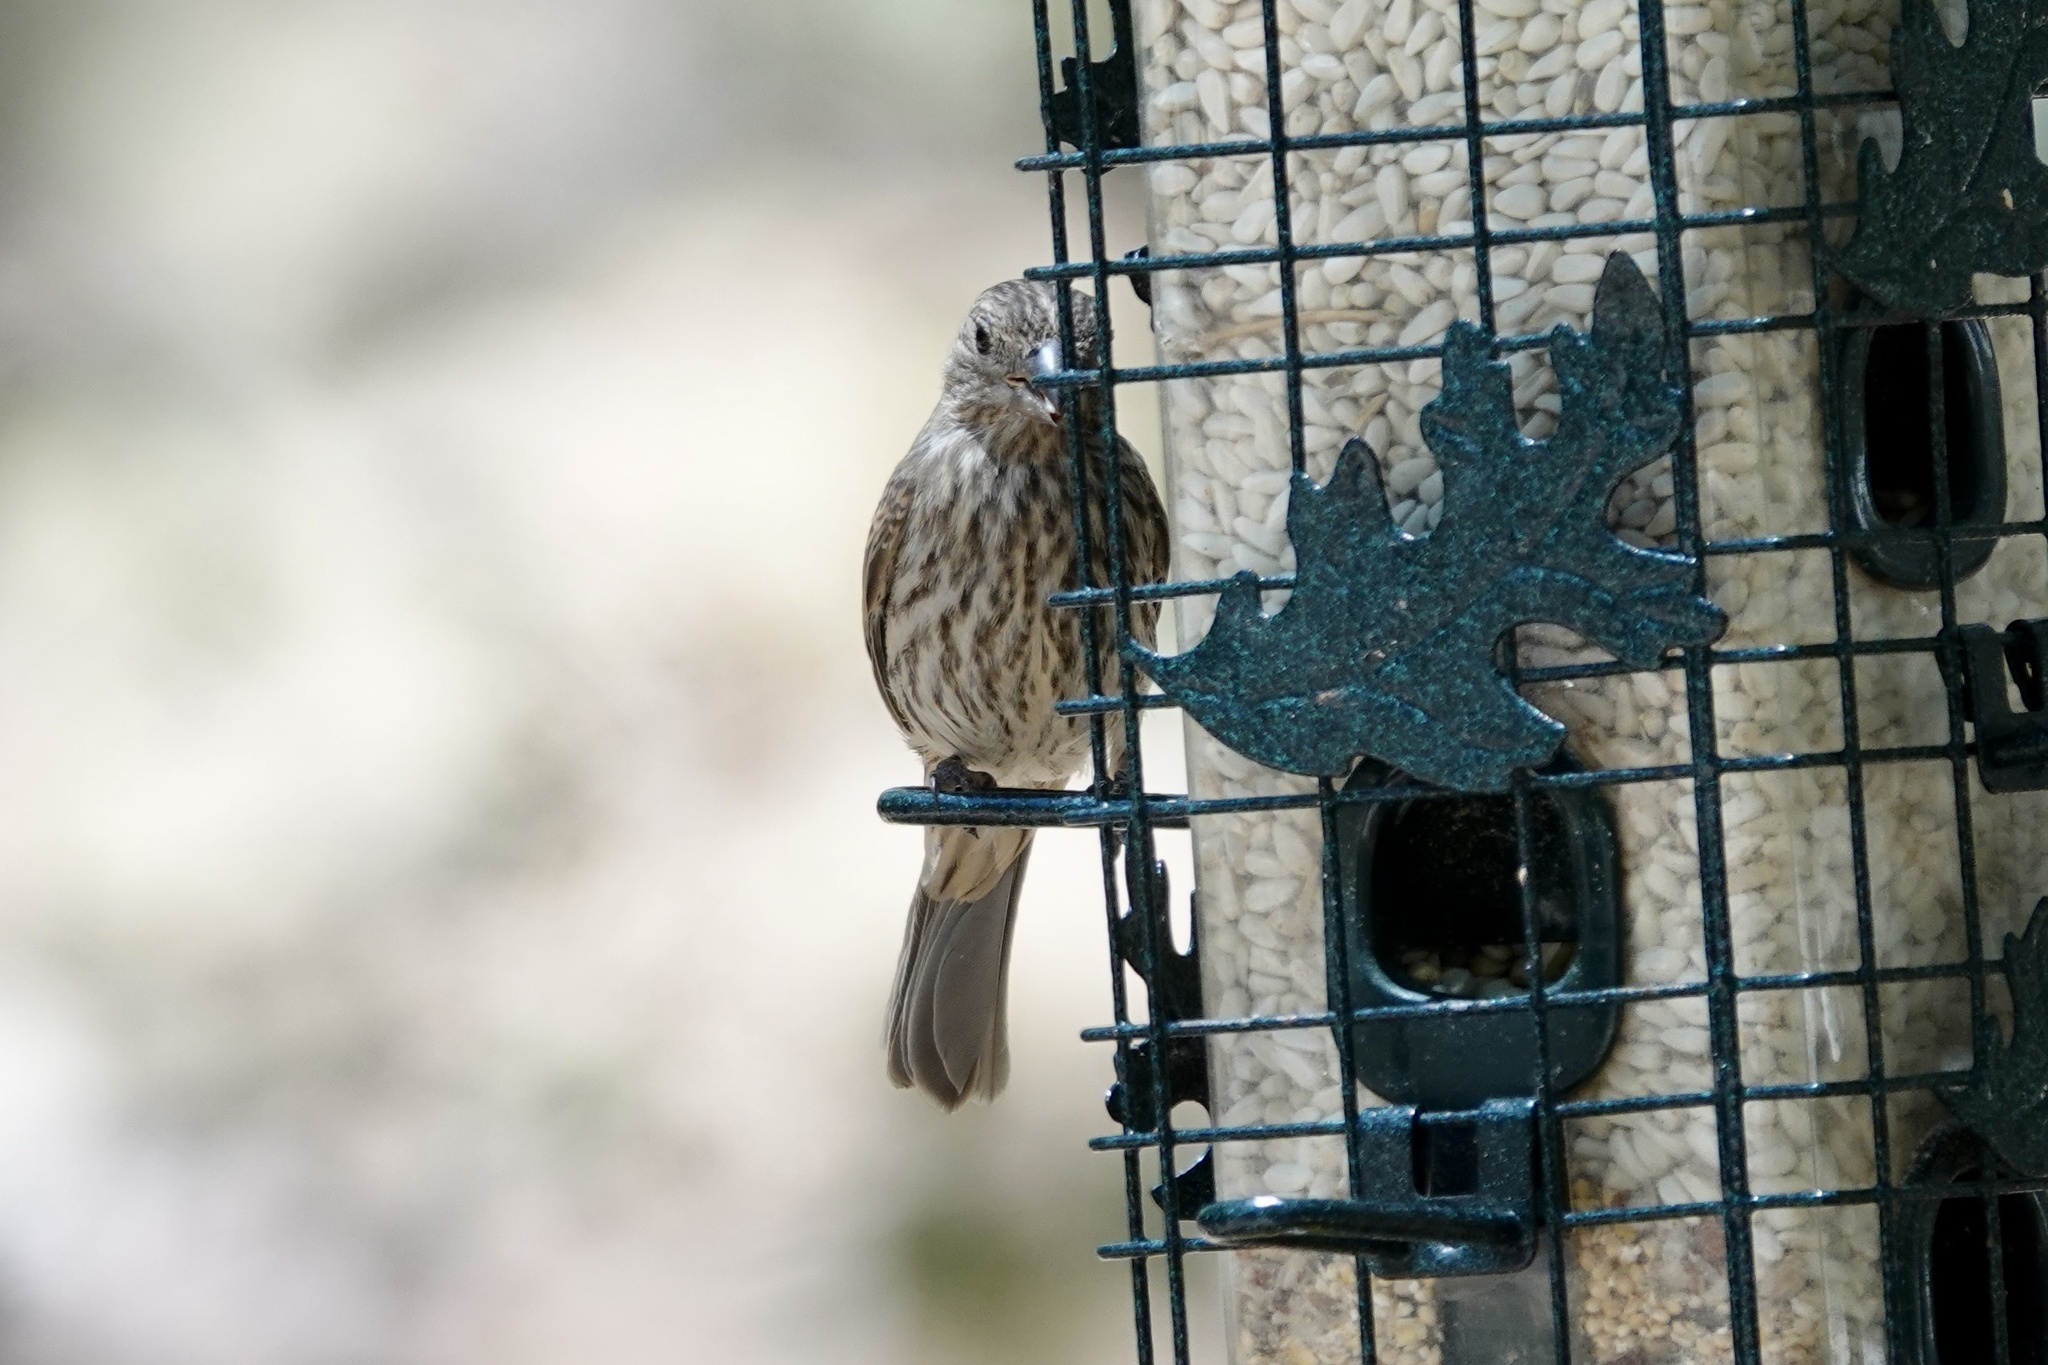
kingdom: Animalia
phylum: Chordata
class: Aves
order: Passeriformes
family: Fringillidae
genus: Haemorhous
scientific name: Haemorhous mexicanus
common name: House finch
